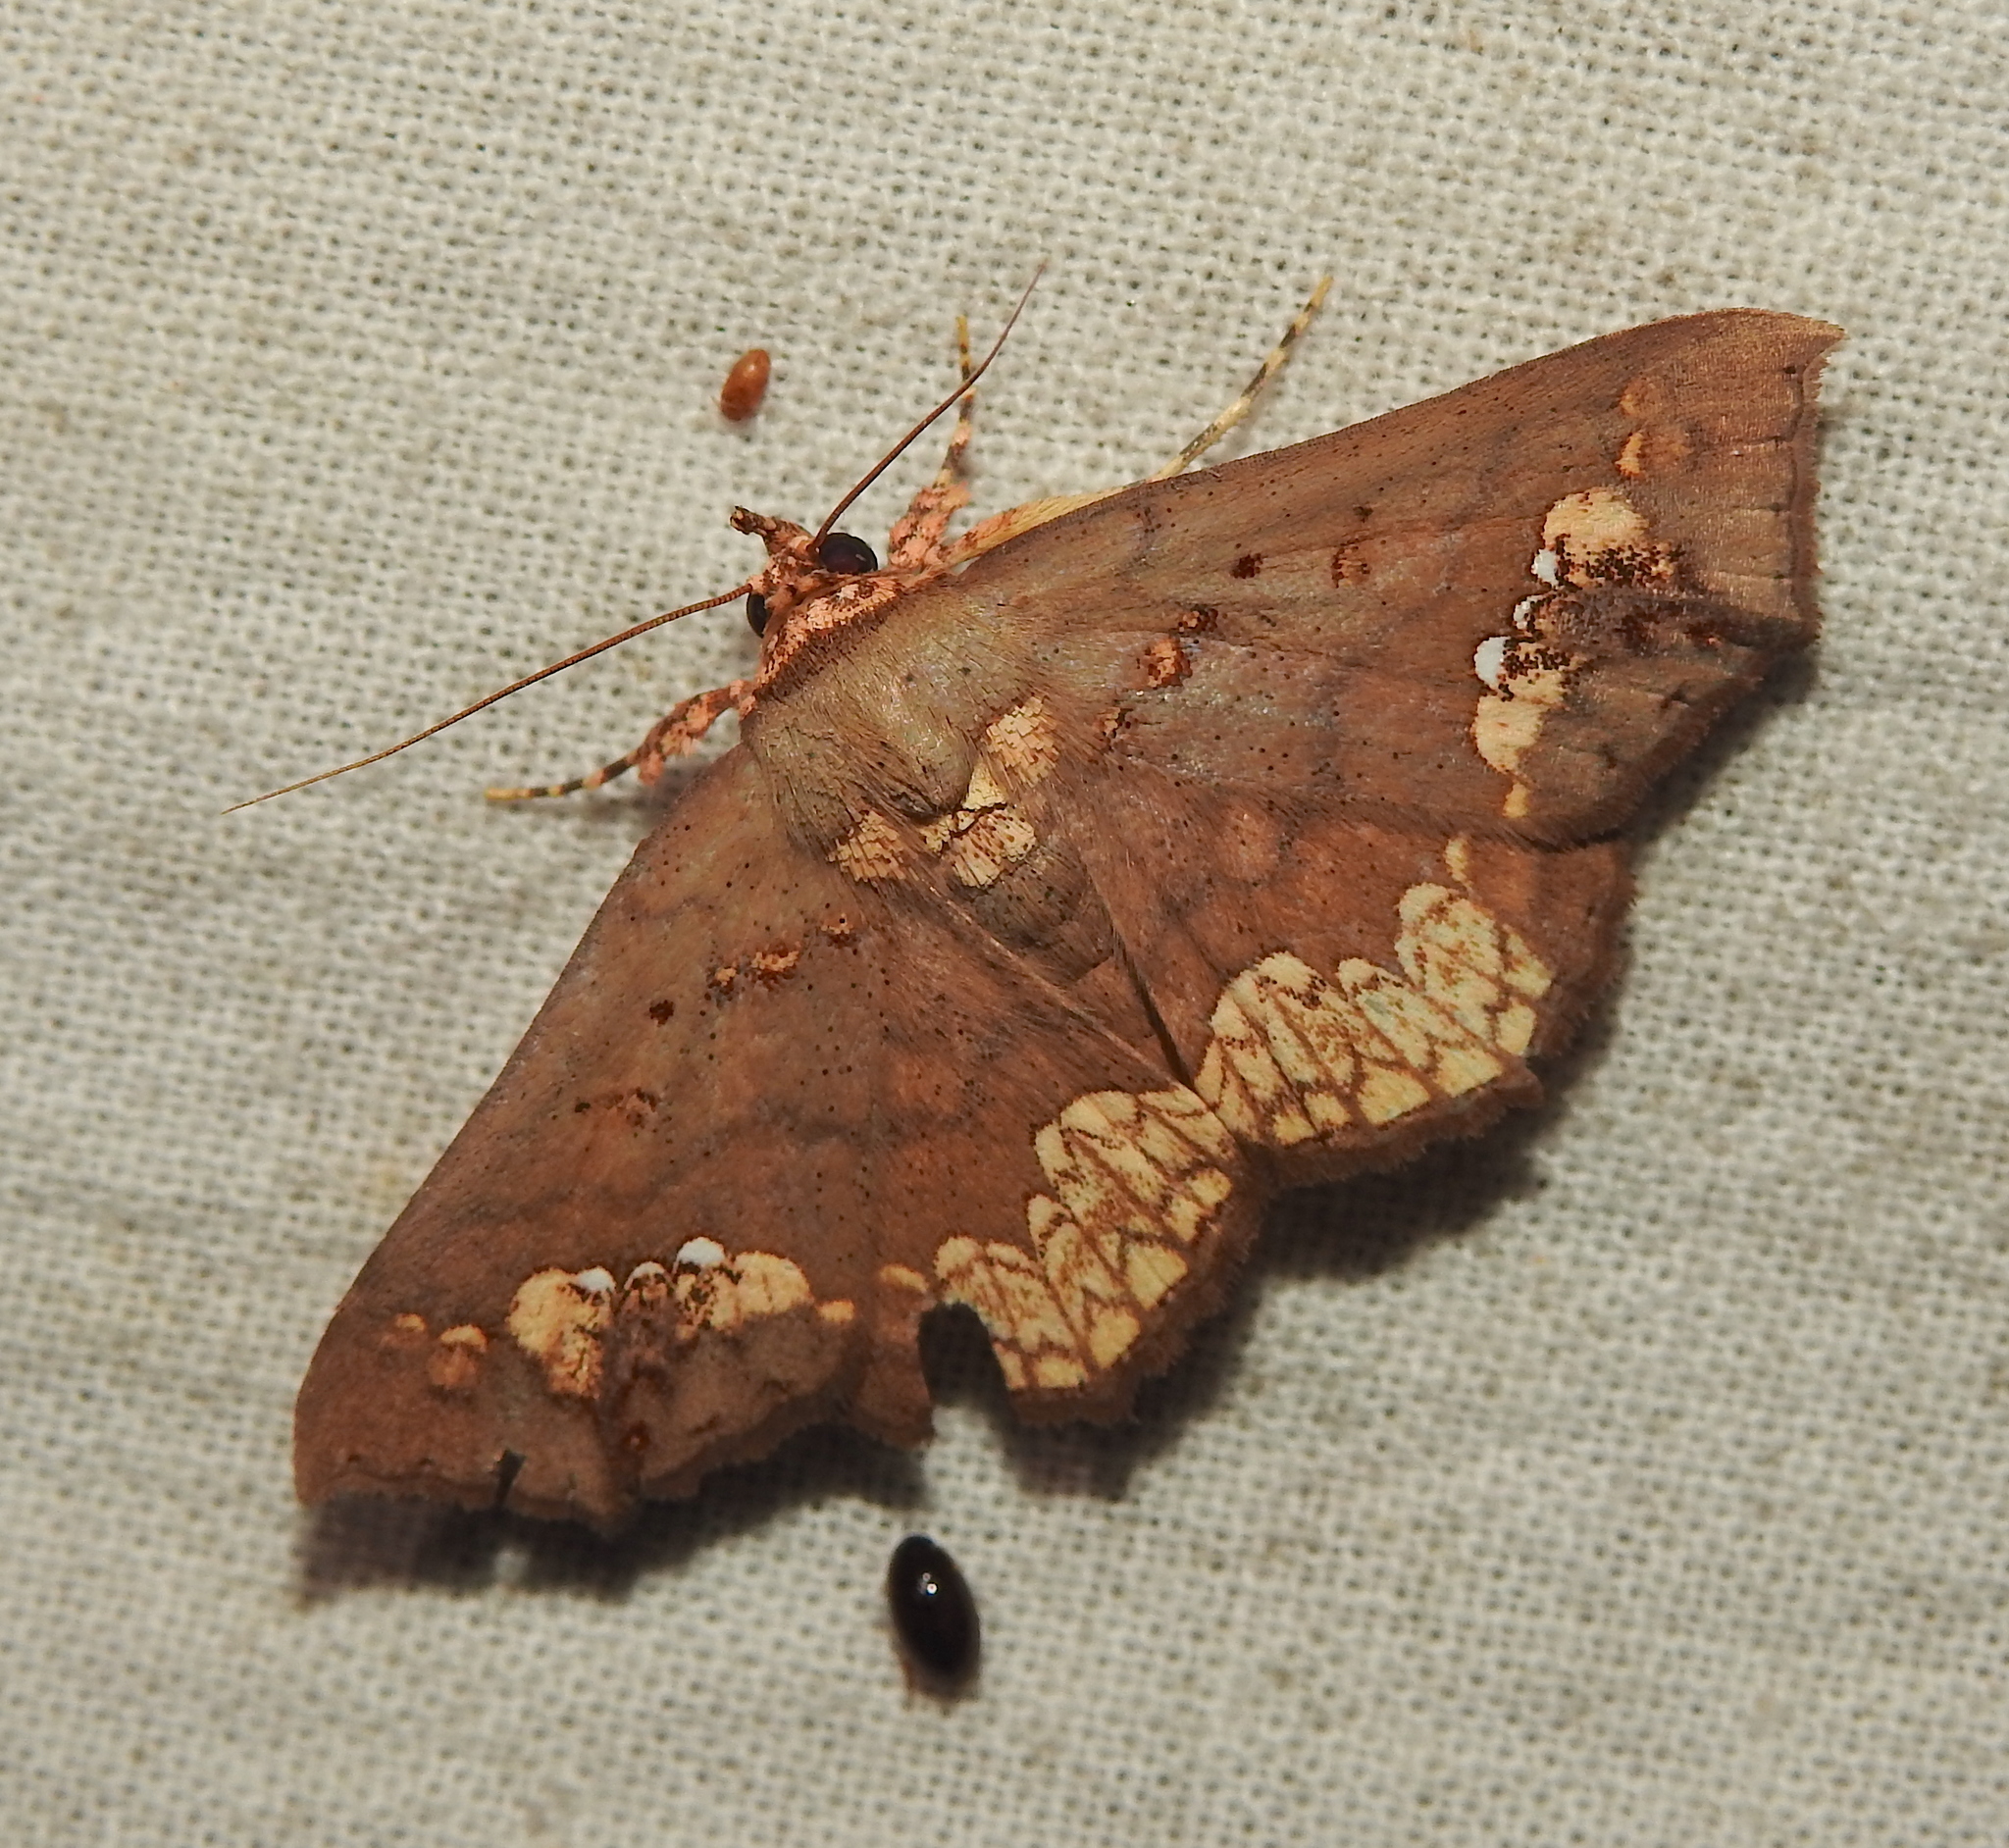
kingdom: Animalia
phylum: Arthropoda
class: Insecta
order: Lepidoptera
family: Erebidae
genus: Lopharthrum
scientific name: Lopharthrum comprimens
